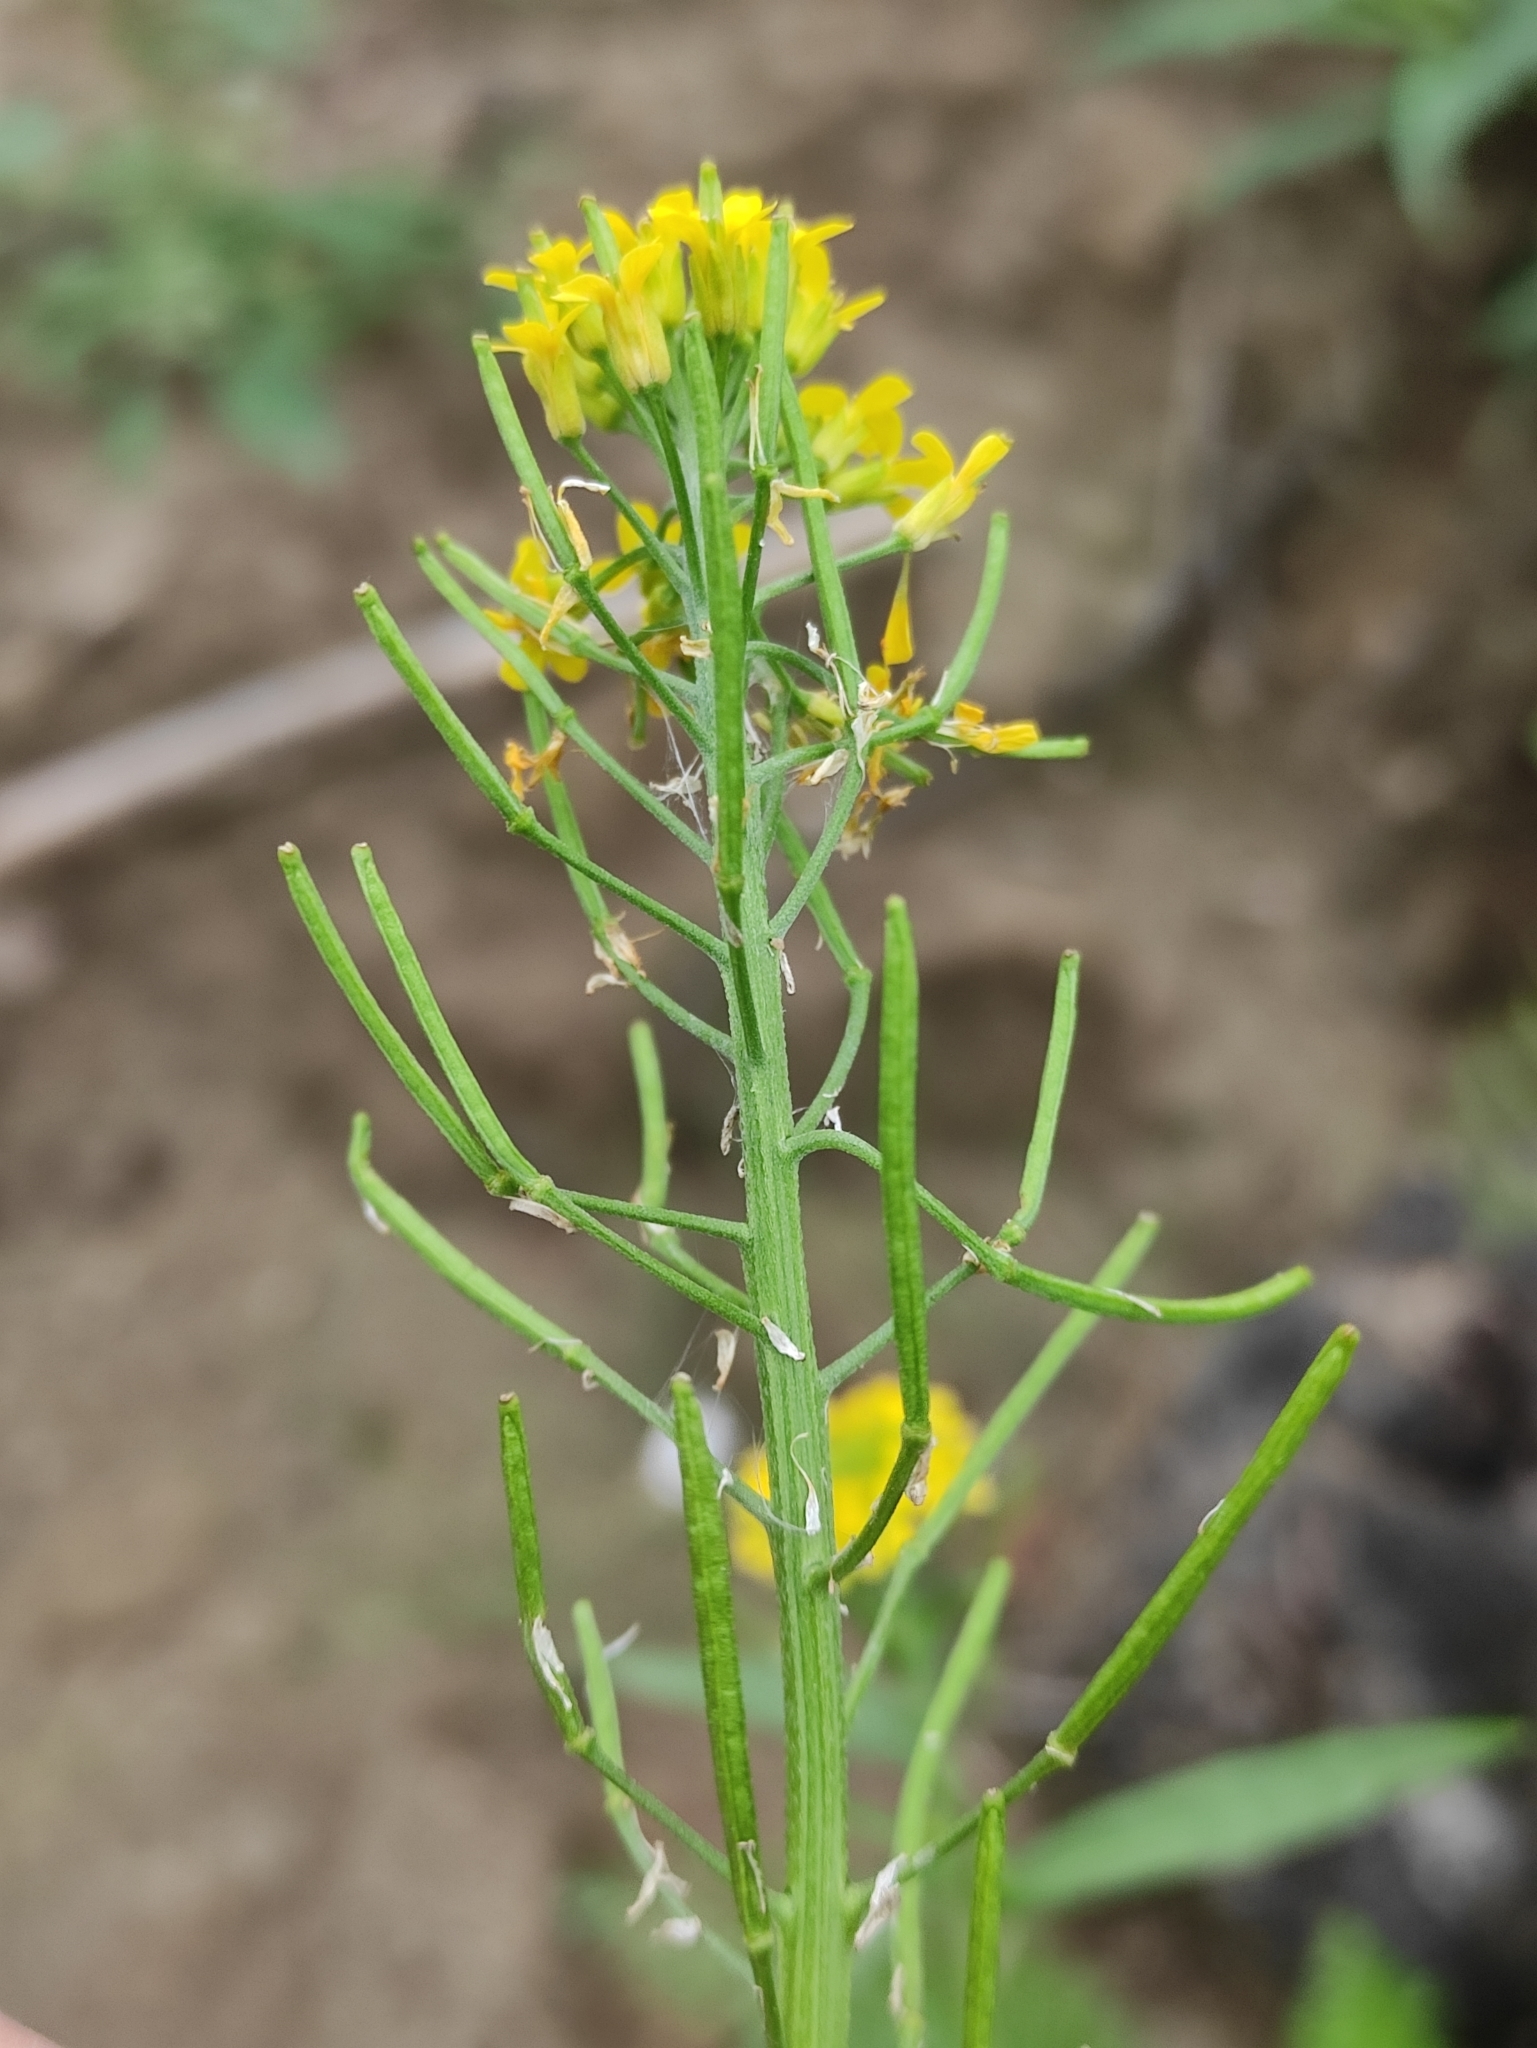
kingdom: Plantae
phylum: Tracheophyta
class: Magnoliopsida
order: Brassicales
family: Brassicaceae
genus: Erysimum
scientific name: Erysimum cheiranthoides
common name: Treacle mustard
